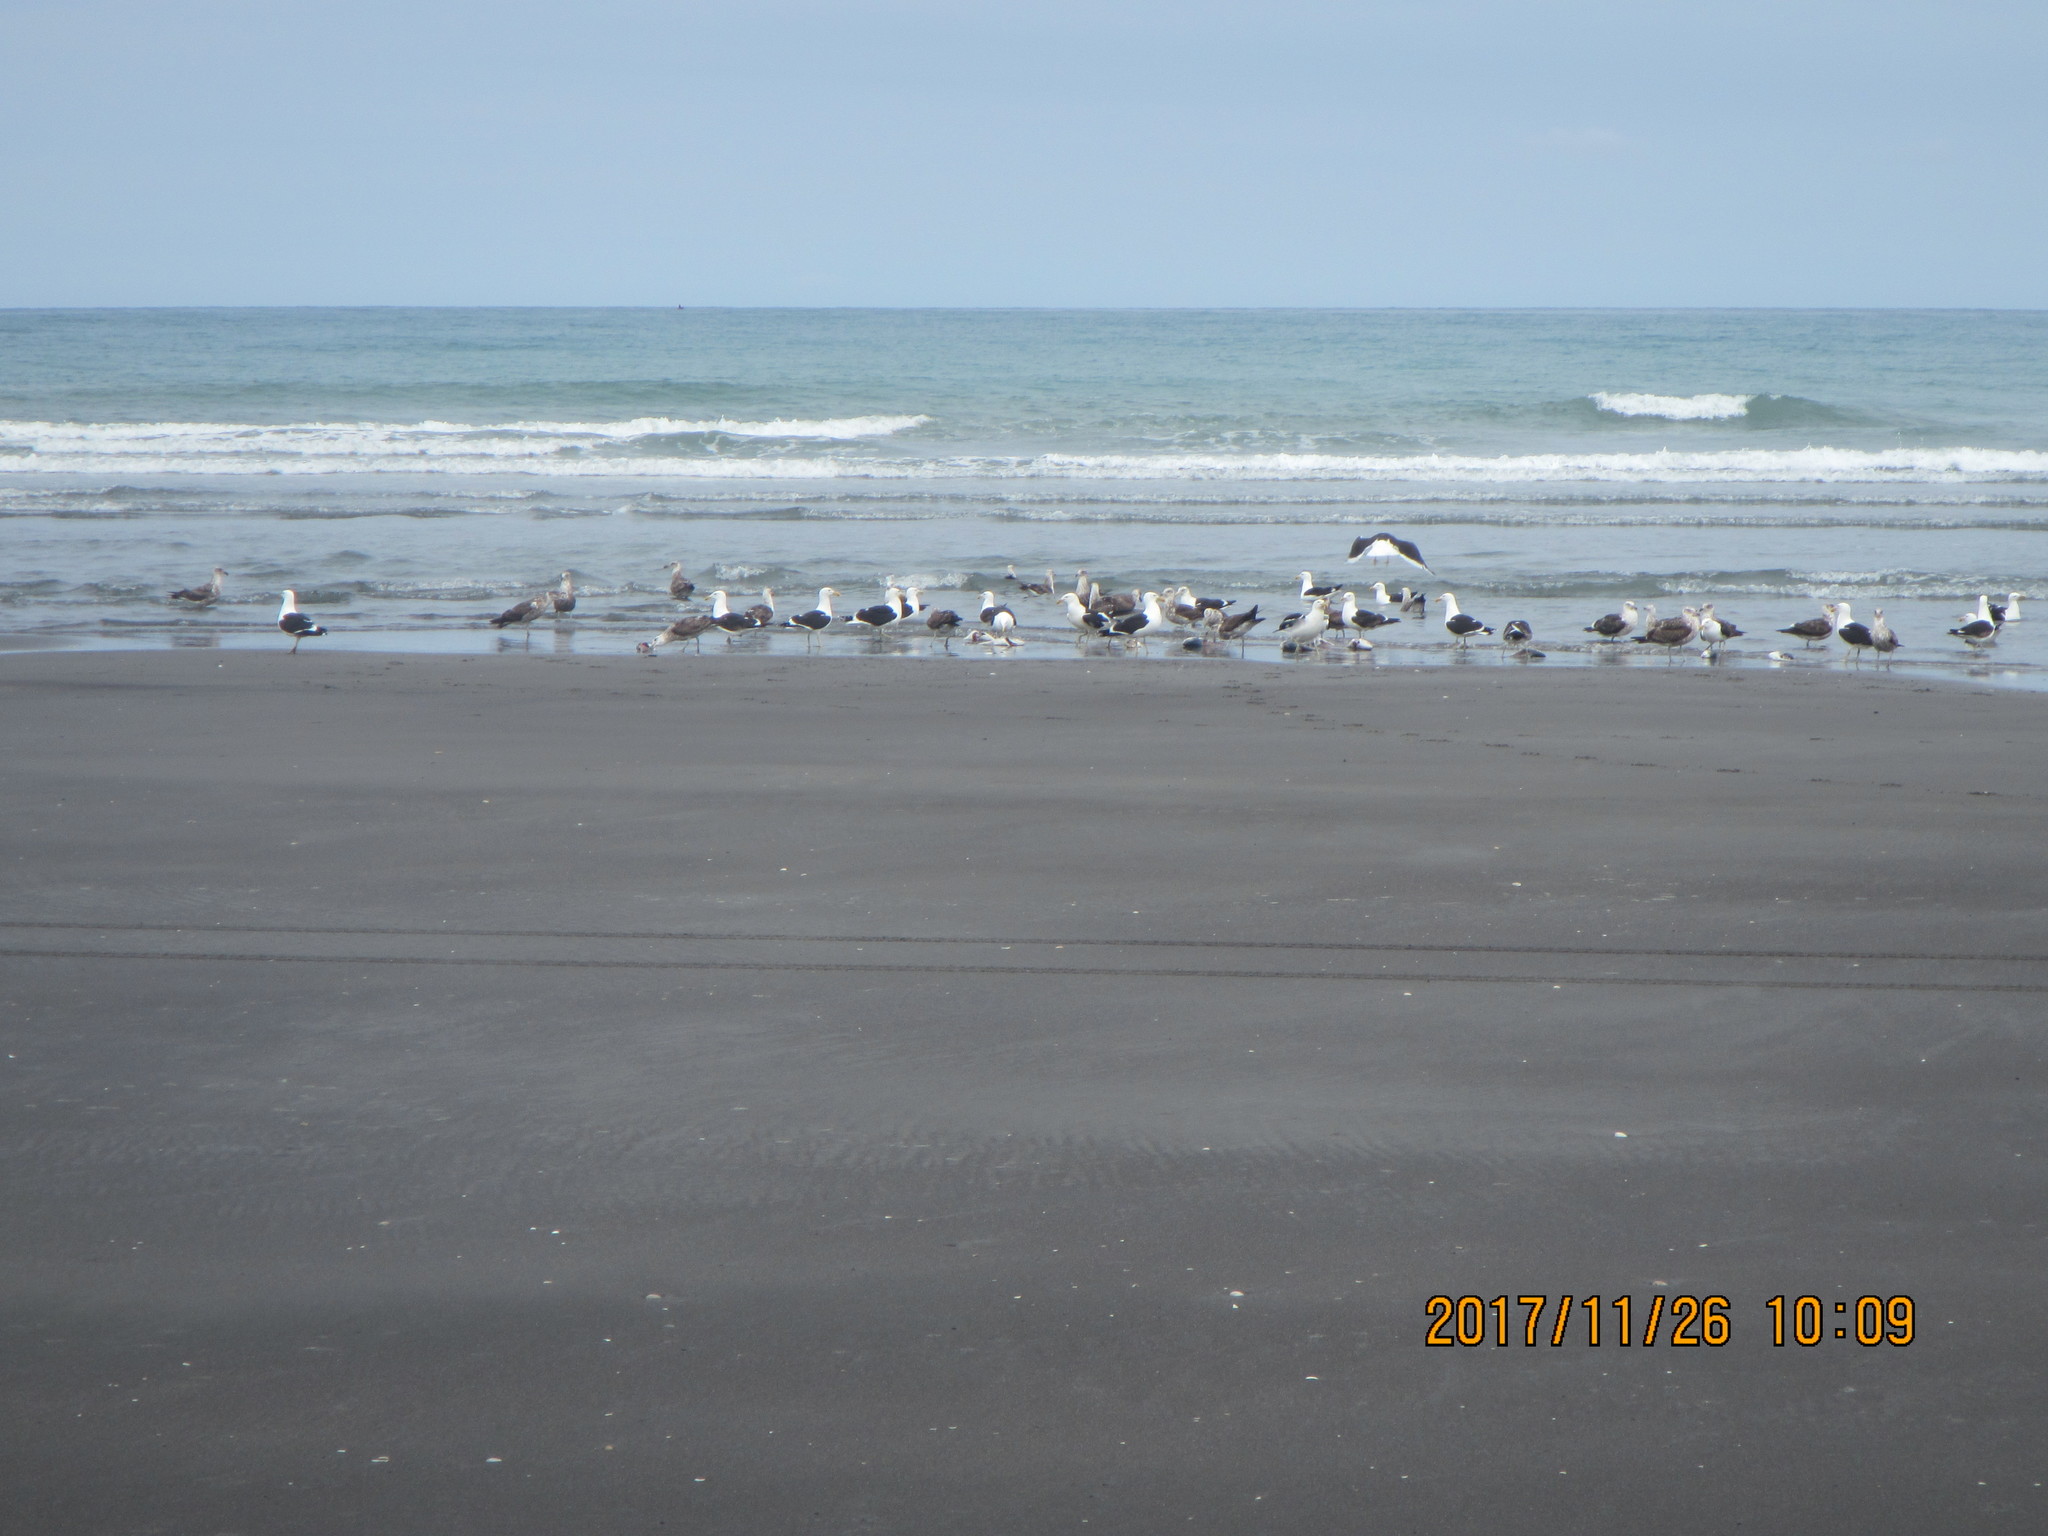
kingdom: Animalia
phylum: Chordata
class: Aves
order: Charadriiformes
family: Laridae
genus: Larus
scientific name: Larus dominicanus
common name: Kelp gull
